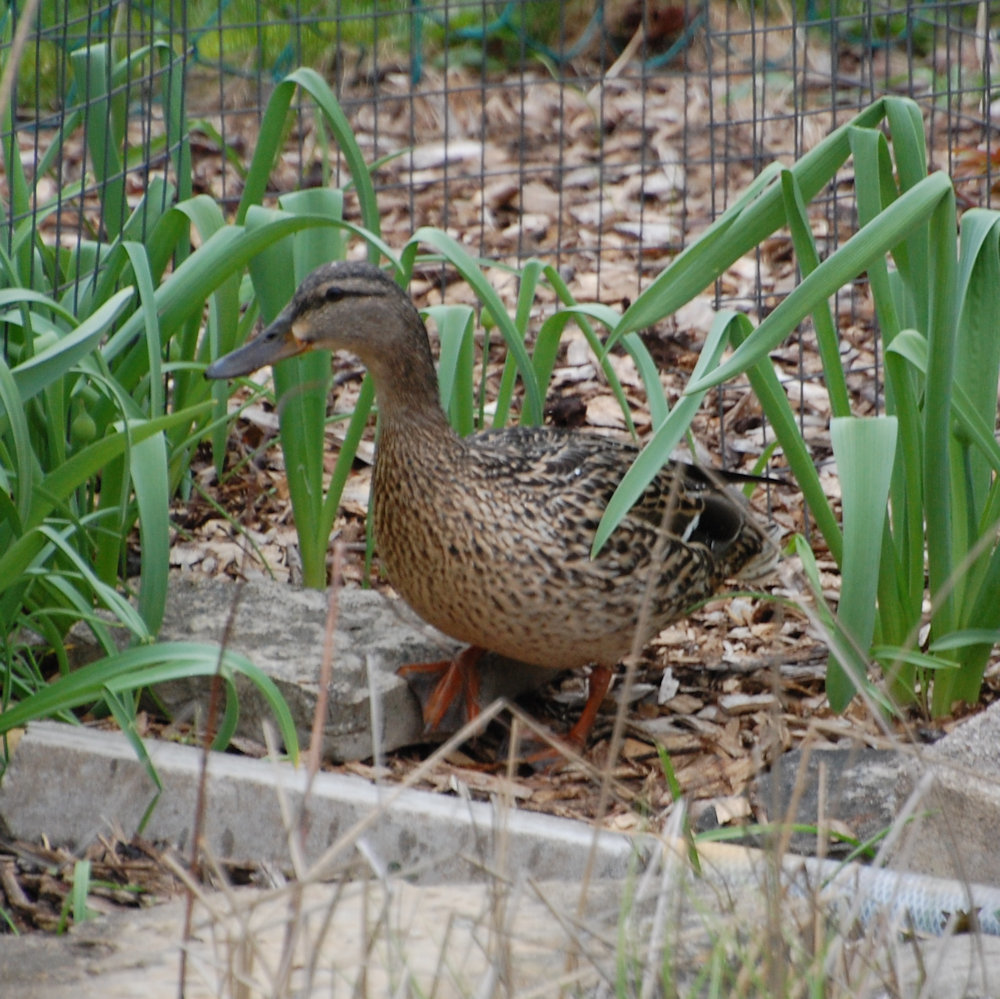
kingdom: Animalia
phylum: Chordata
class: Aves
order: Anseriformes
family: Anatidae
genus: Anas
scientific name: Anas platyrhynchos
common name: Mallard
